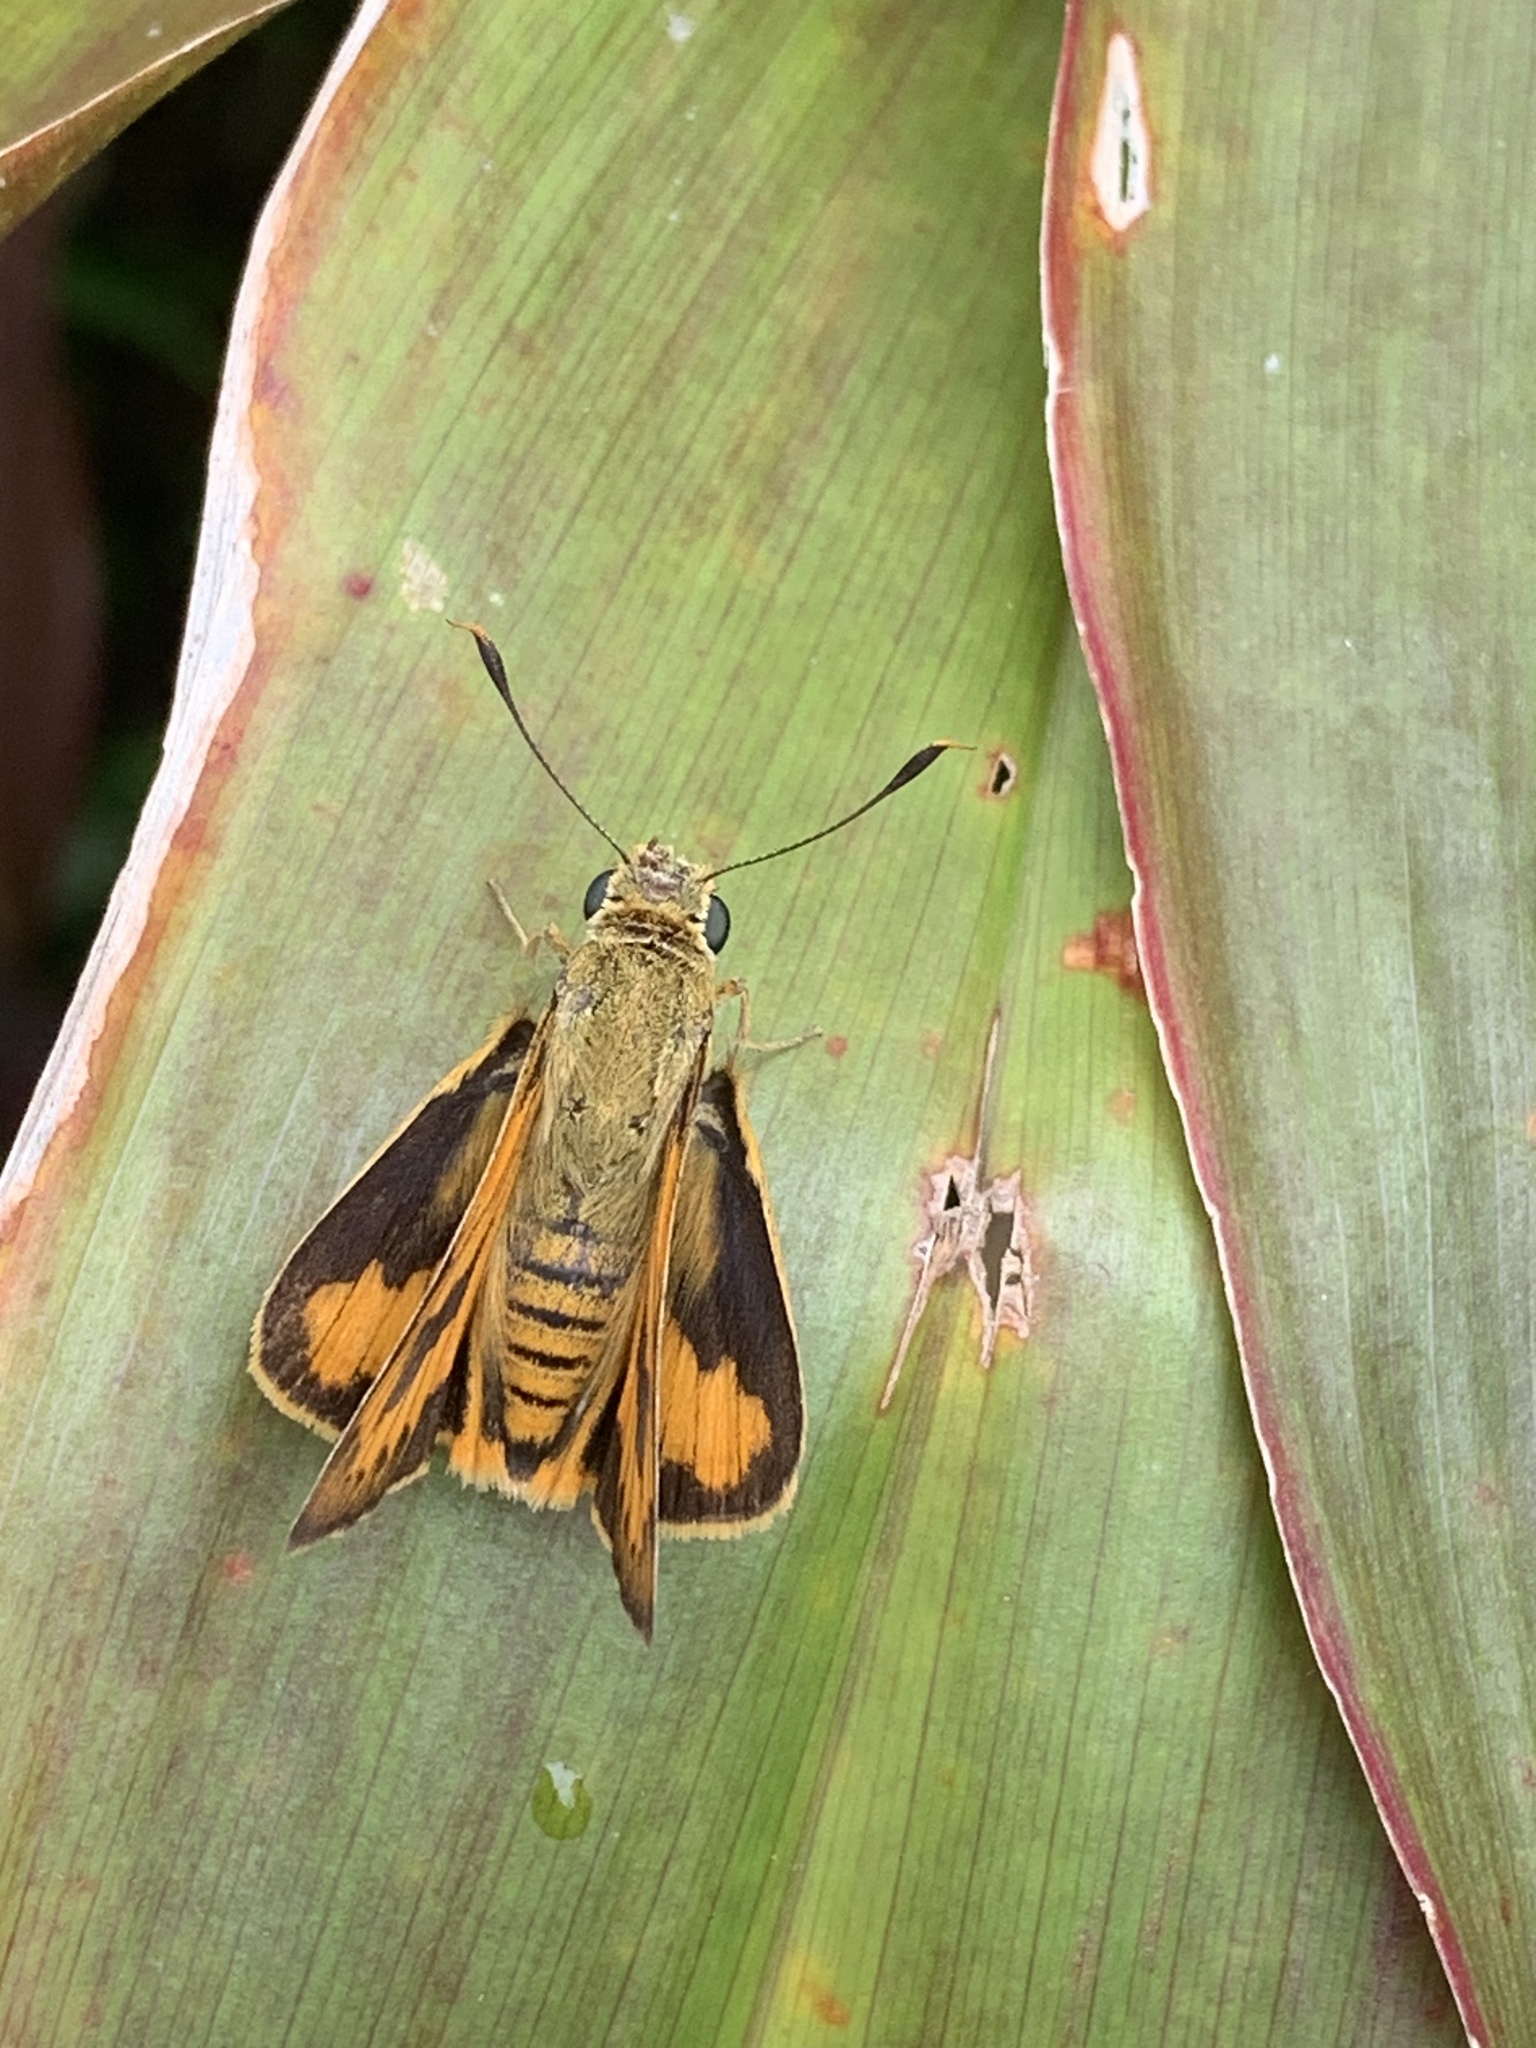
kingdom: Animalia
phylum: Arthropoda
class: Insecta
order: Lepidoptera
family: Hesperiidae
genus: Cephrenes
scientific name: Cephrenes trichopepla
